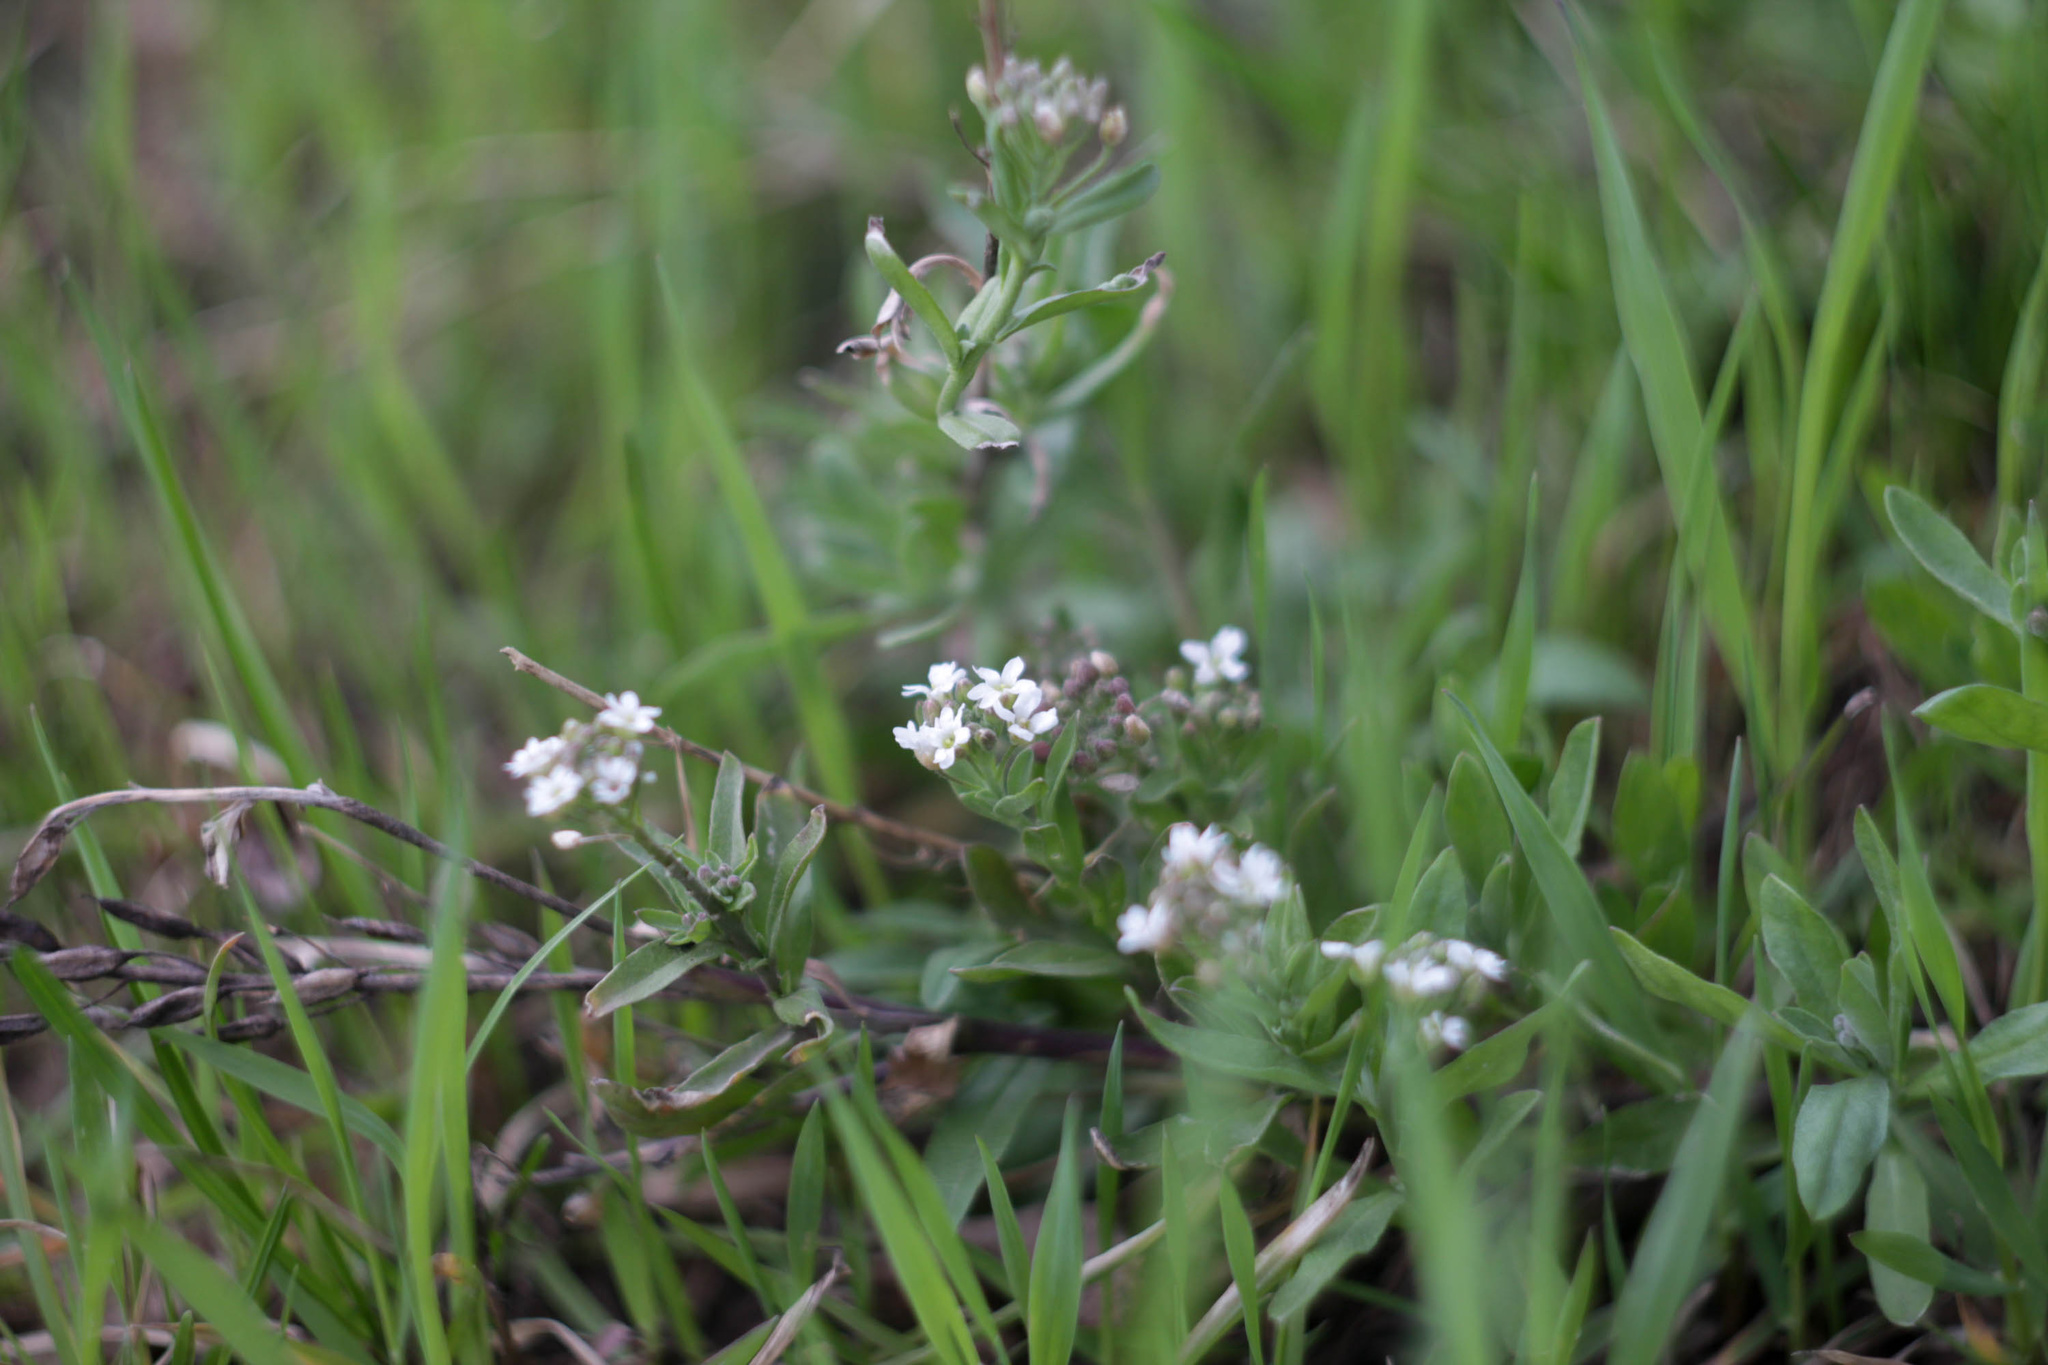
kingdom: Plantae
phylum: Tracheophyta
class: Magnoliopsida
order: Brassicales
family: Brassicaceae
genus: Berteroa
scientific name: Berteroa incana
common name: Hoary alison
